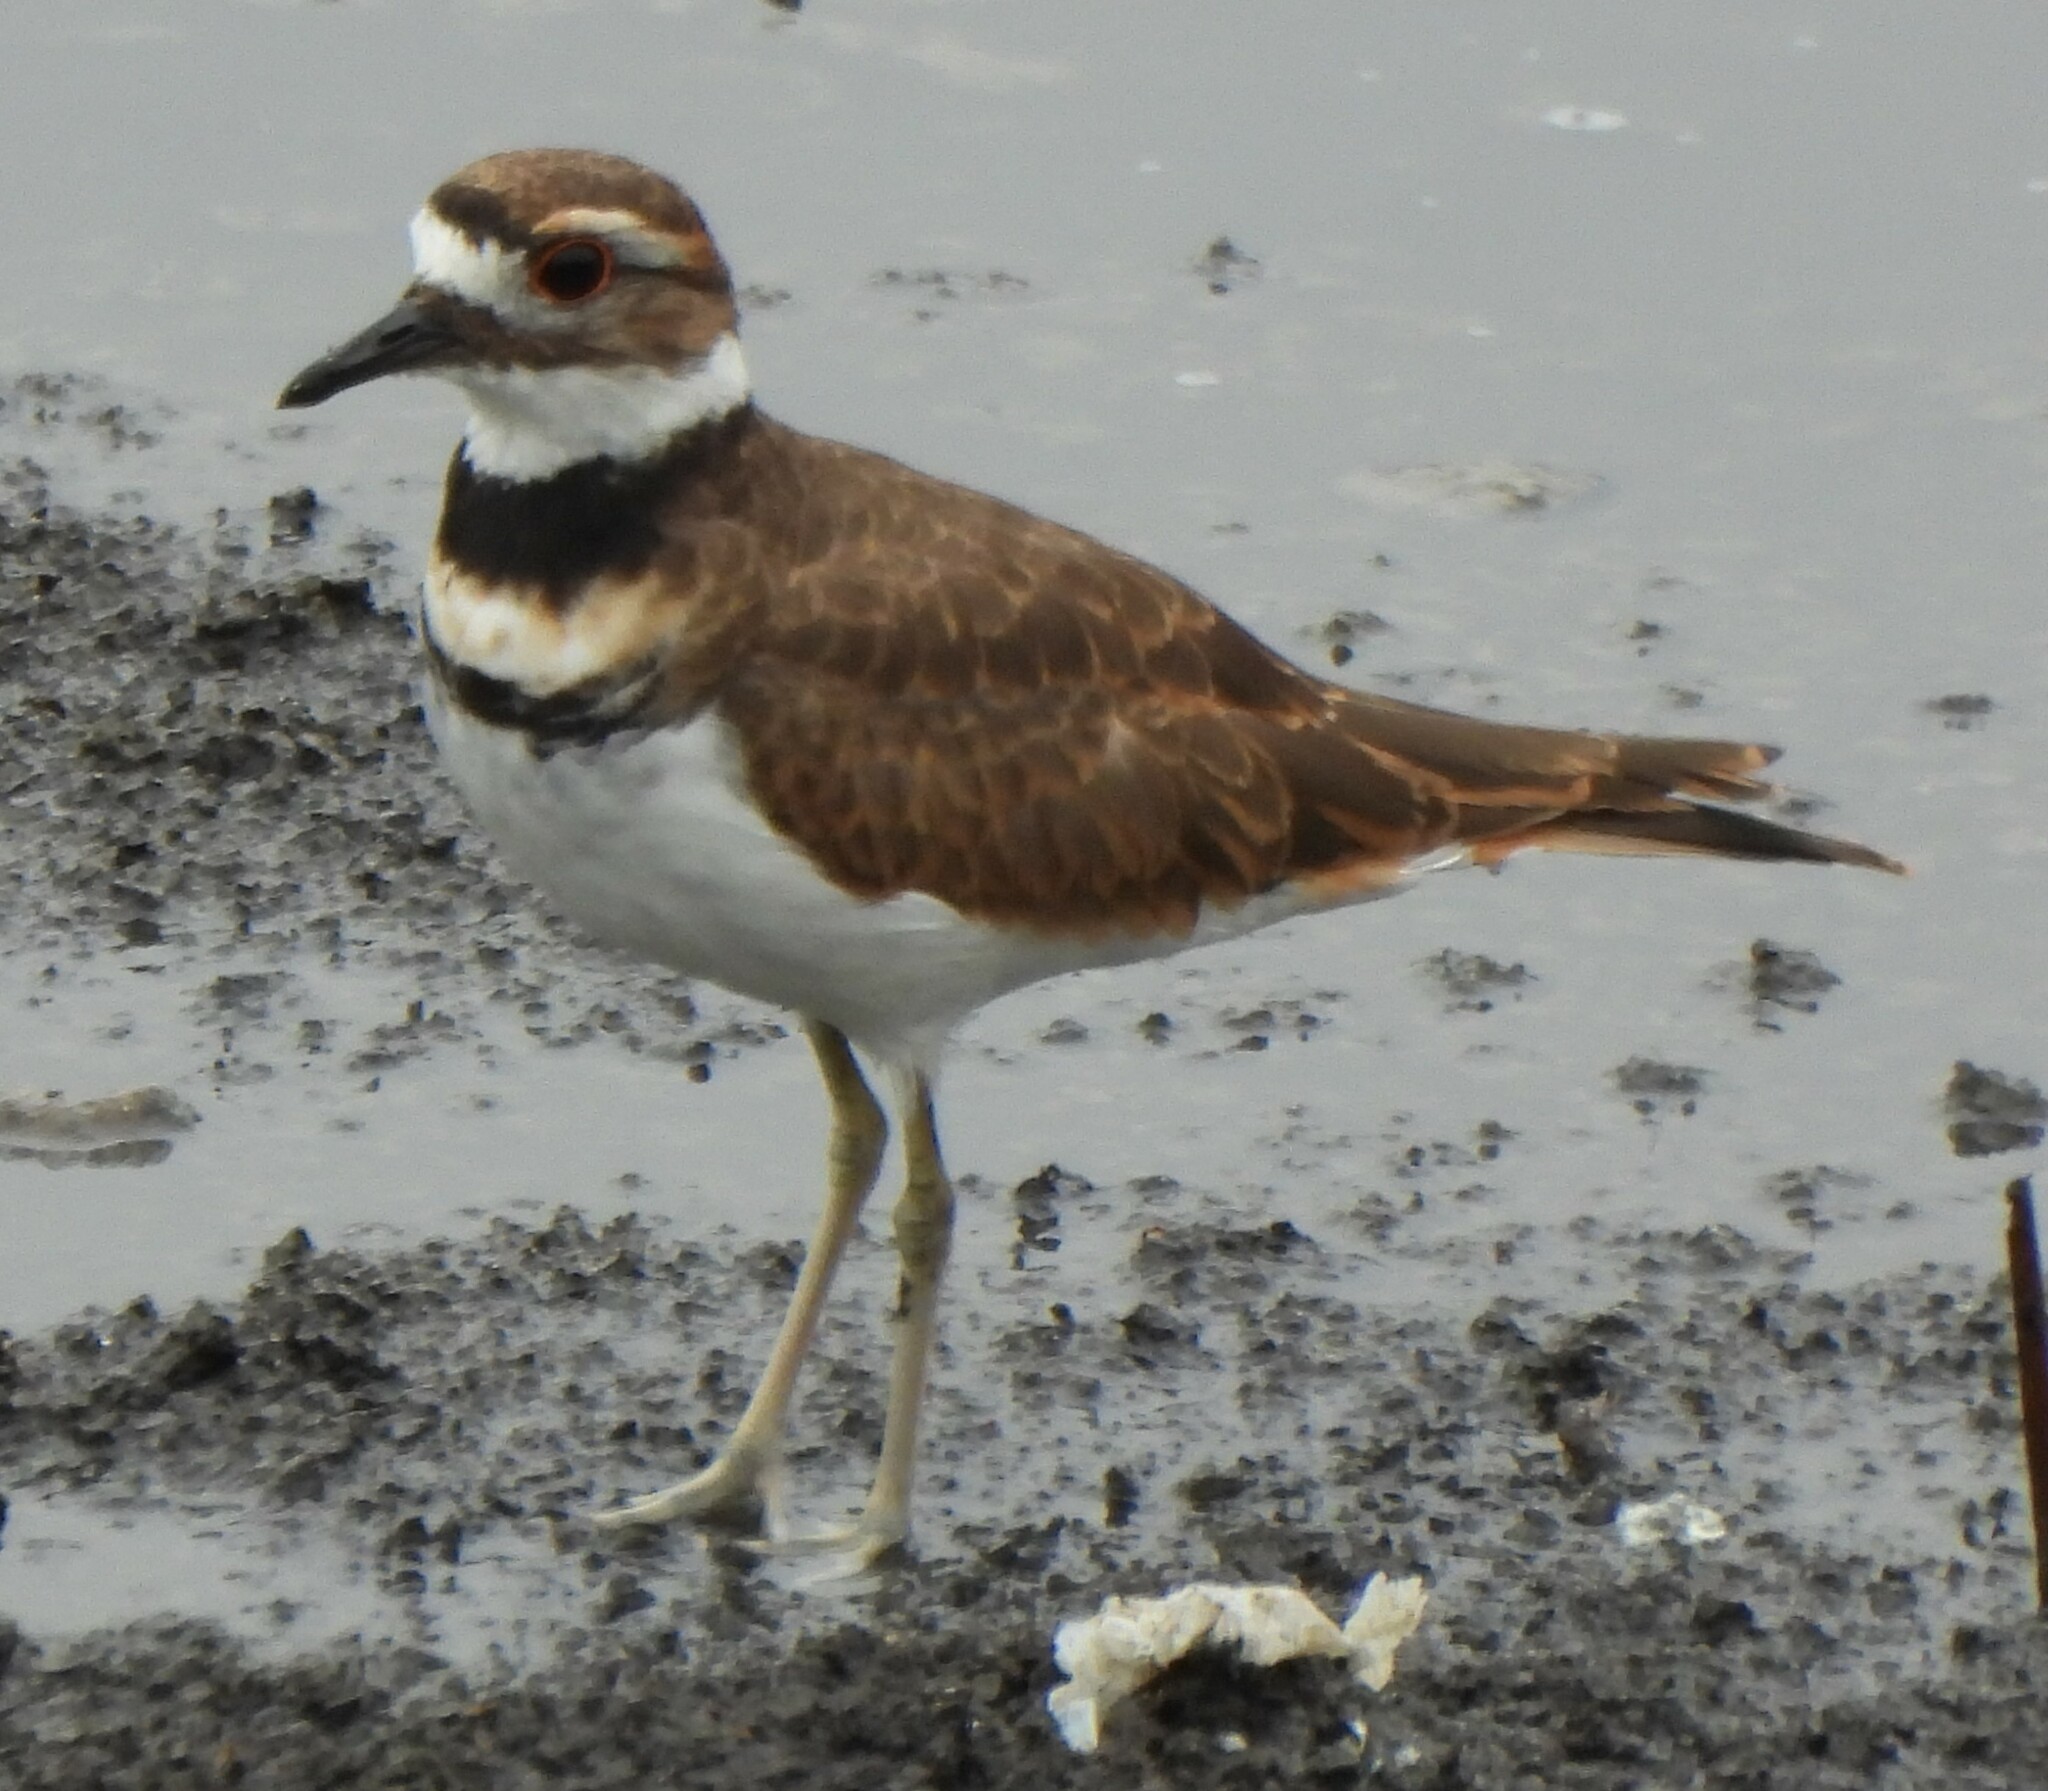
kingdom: Animalia
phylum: Chordata
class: Aves
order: Charadriiformes
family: Charadriidae
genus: Charadrius
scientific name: Charadrius vociferus
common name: Killdeer
